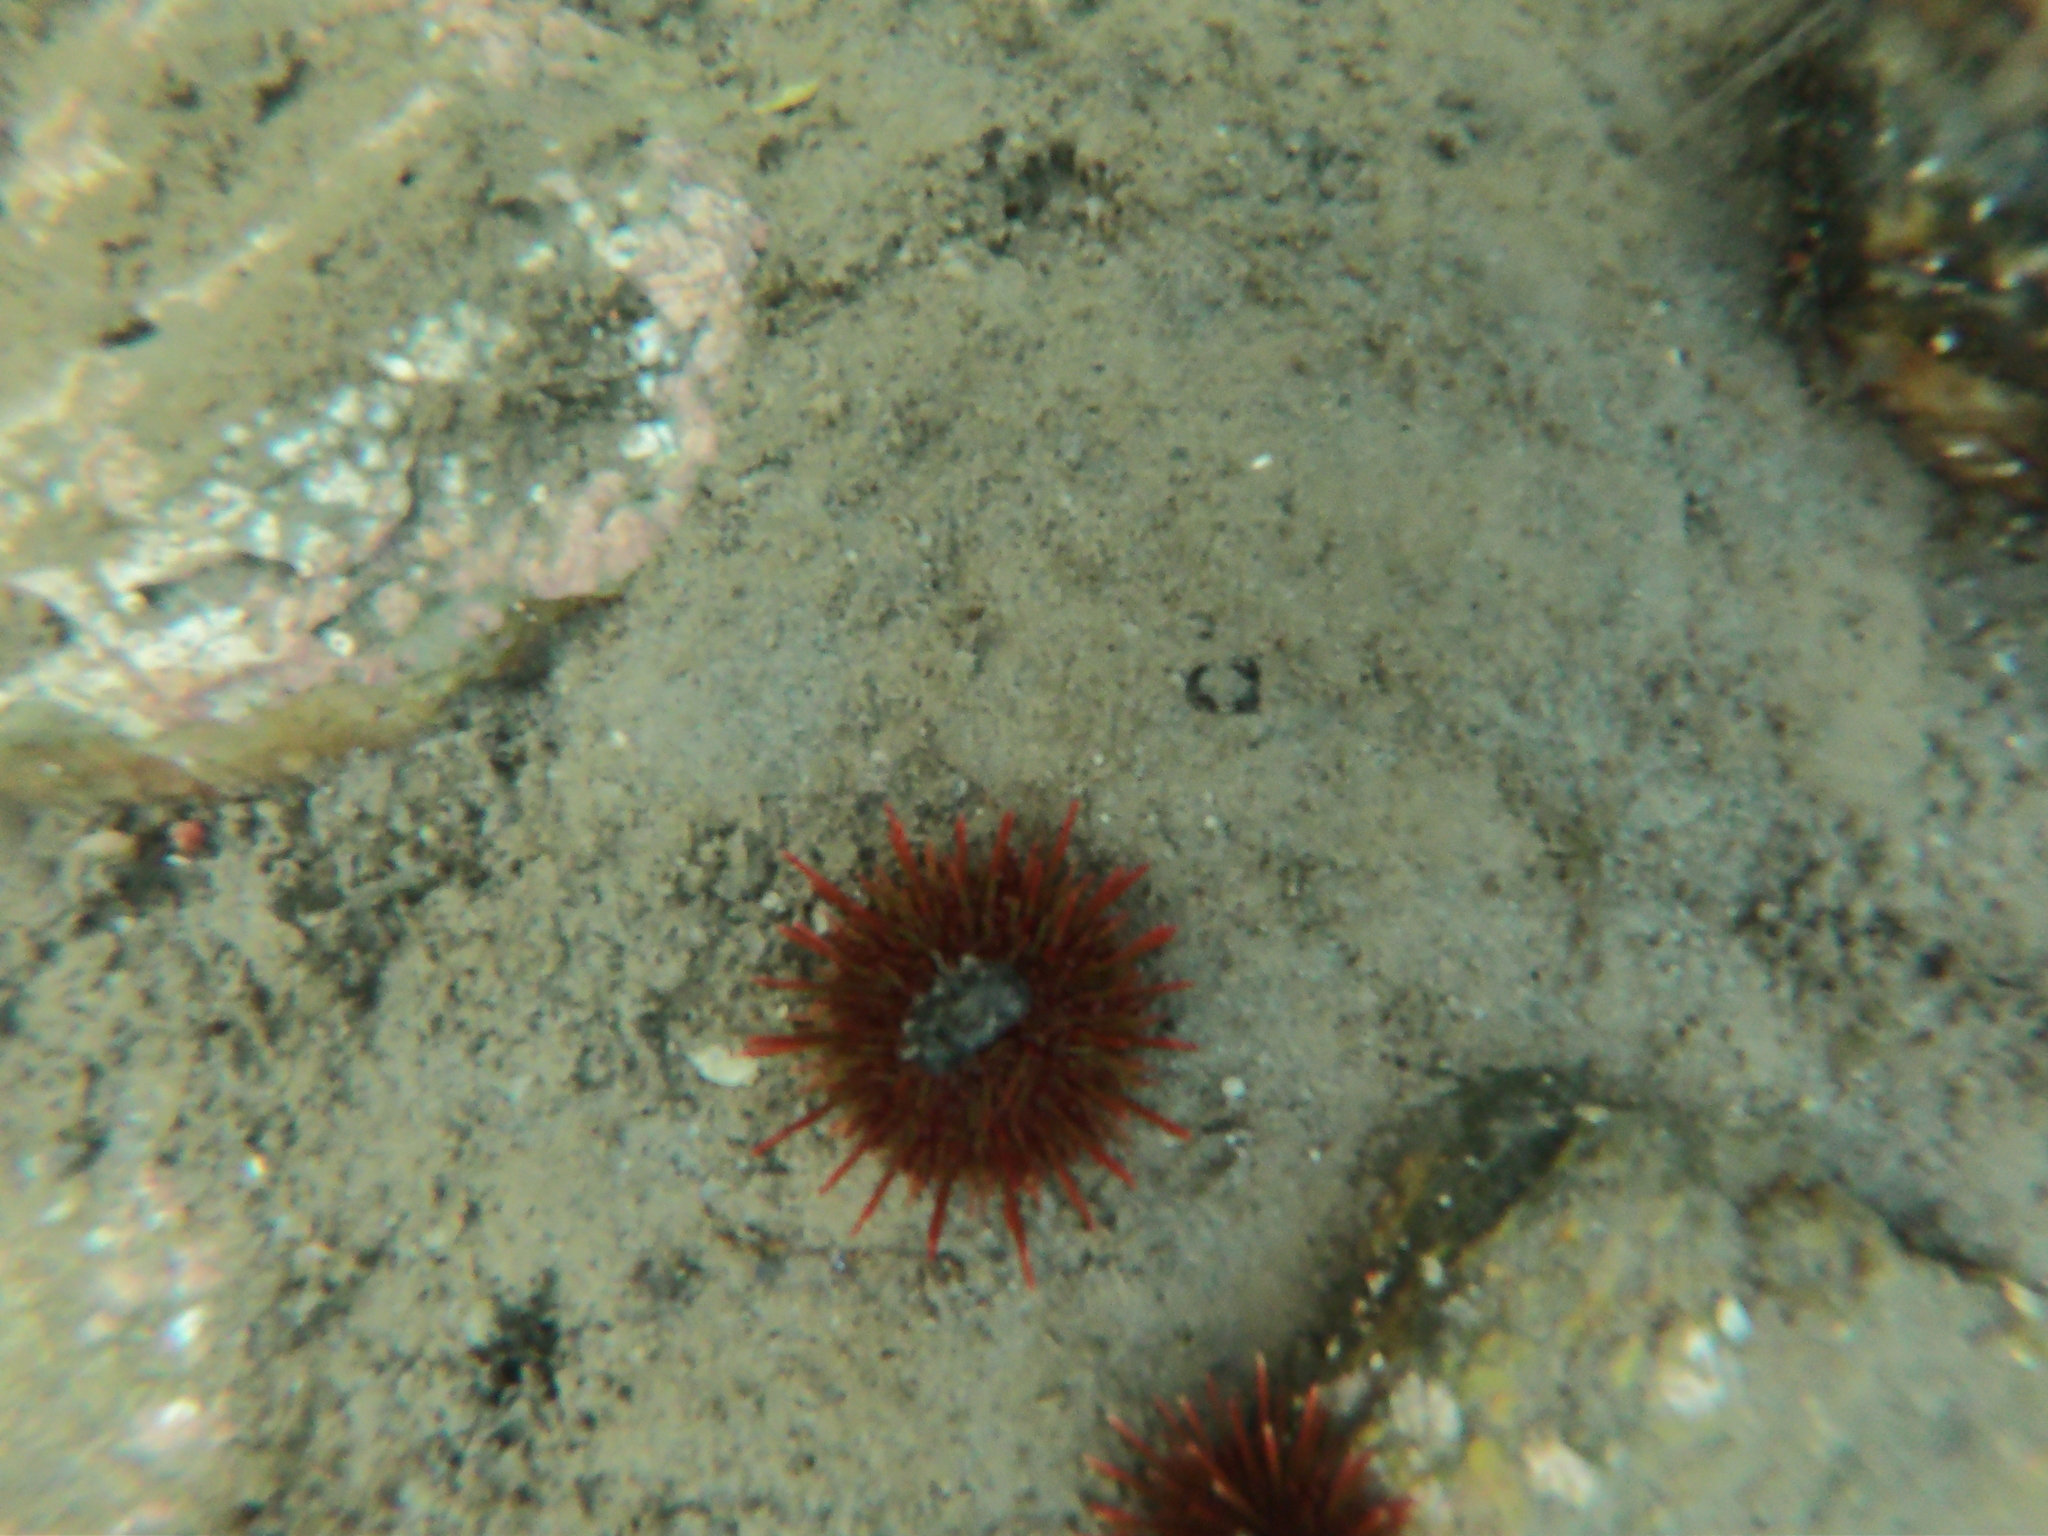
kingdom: Animalia
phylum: Echinodermata
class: Echinoidea
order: Camarodonta
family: Parechinidae
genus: Loxechinus
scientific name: Loxechinus albus
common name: Chilean sea urchin
